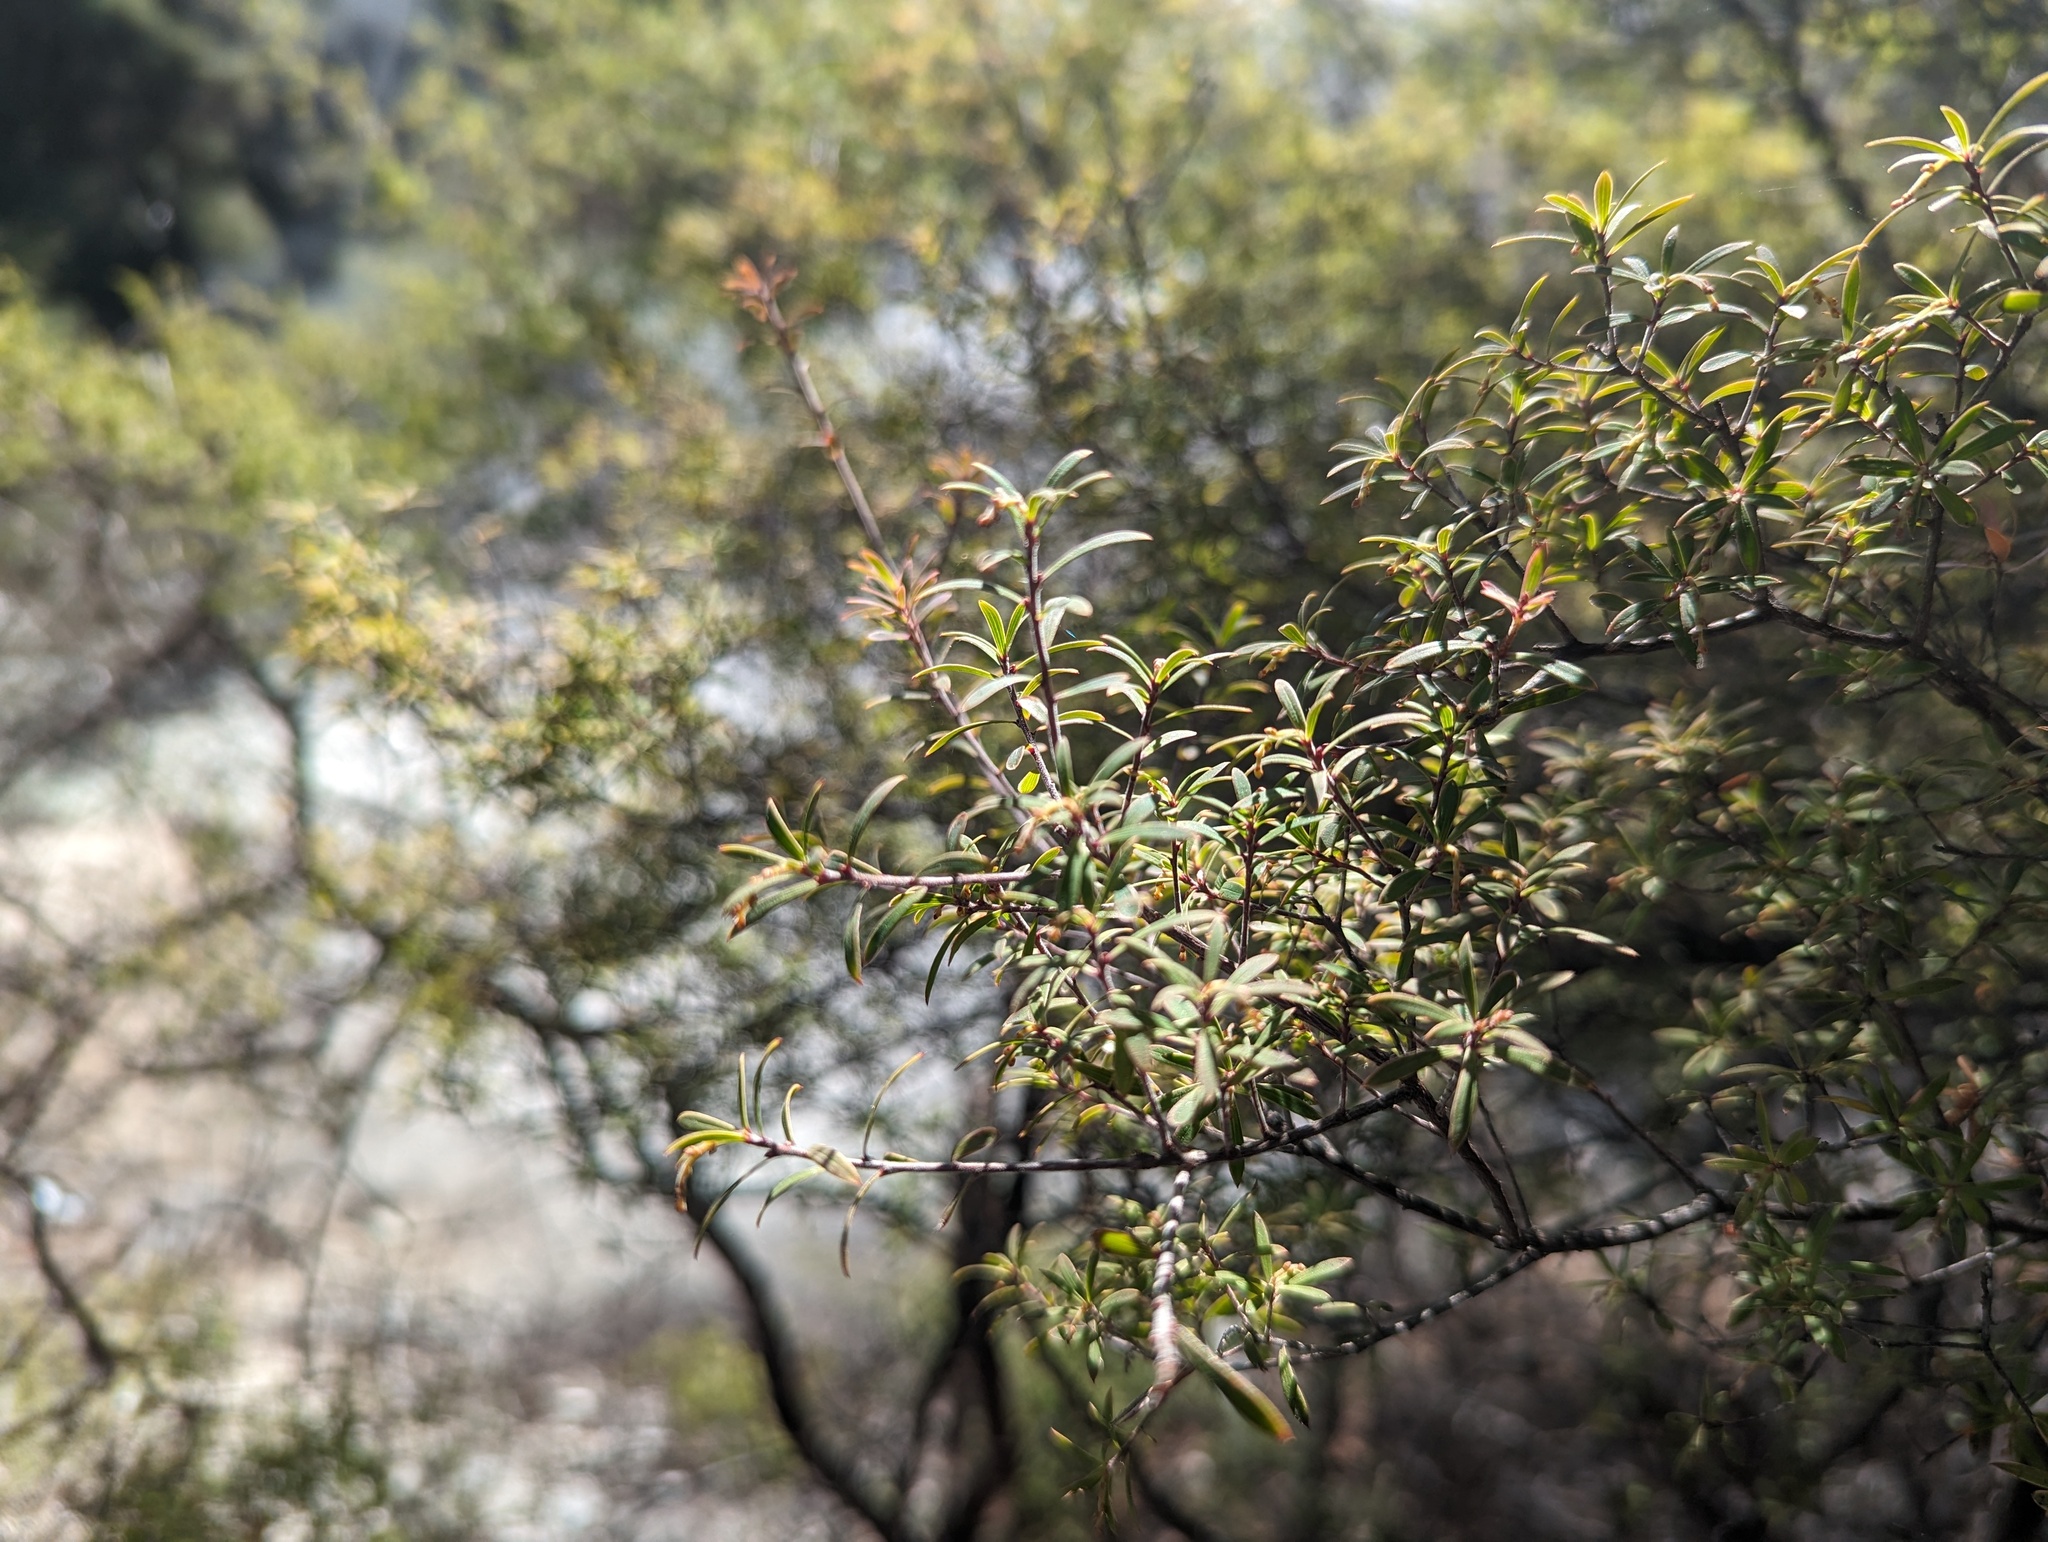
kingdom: Plantae
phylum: Tracheophyta
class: Magnoliopsida
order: Ericales
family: Ericaceae
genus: Leucopogon
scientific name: Leucopogon fasciculatus
